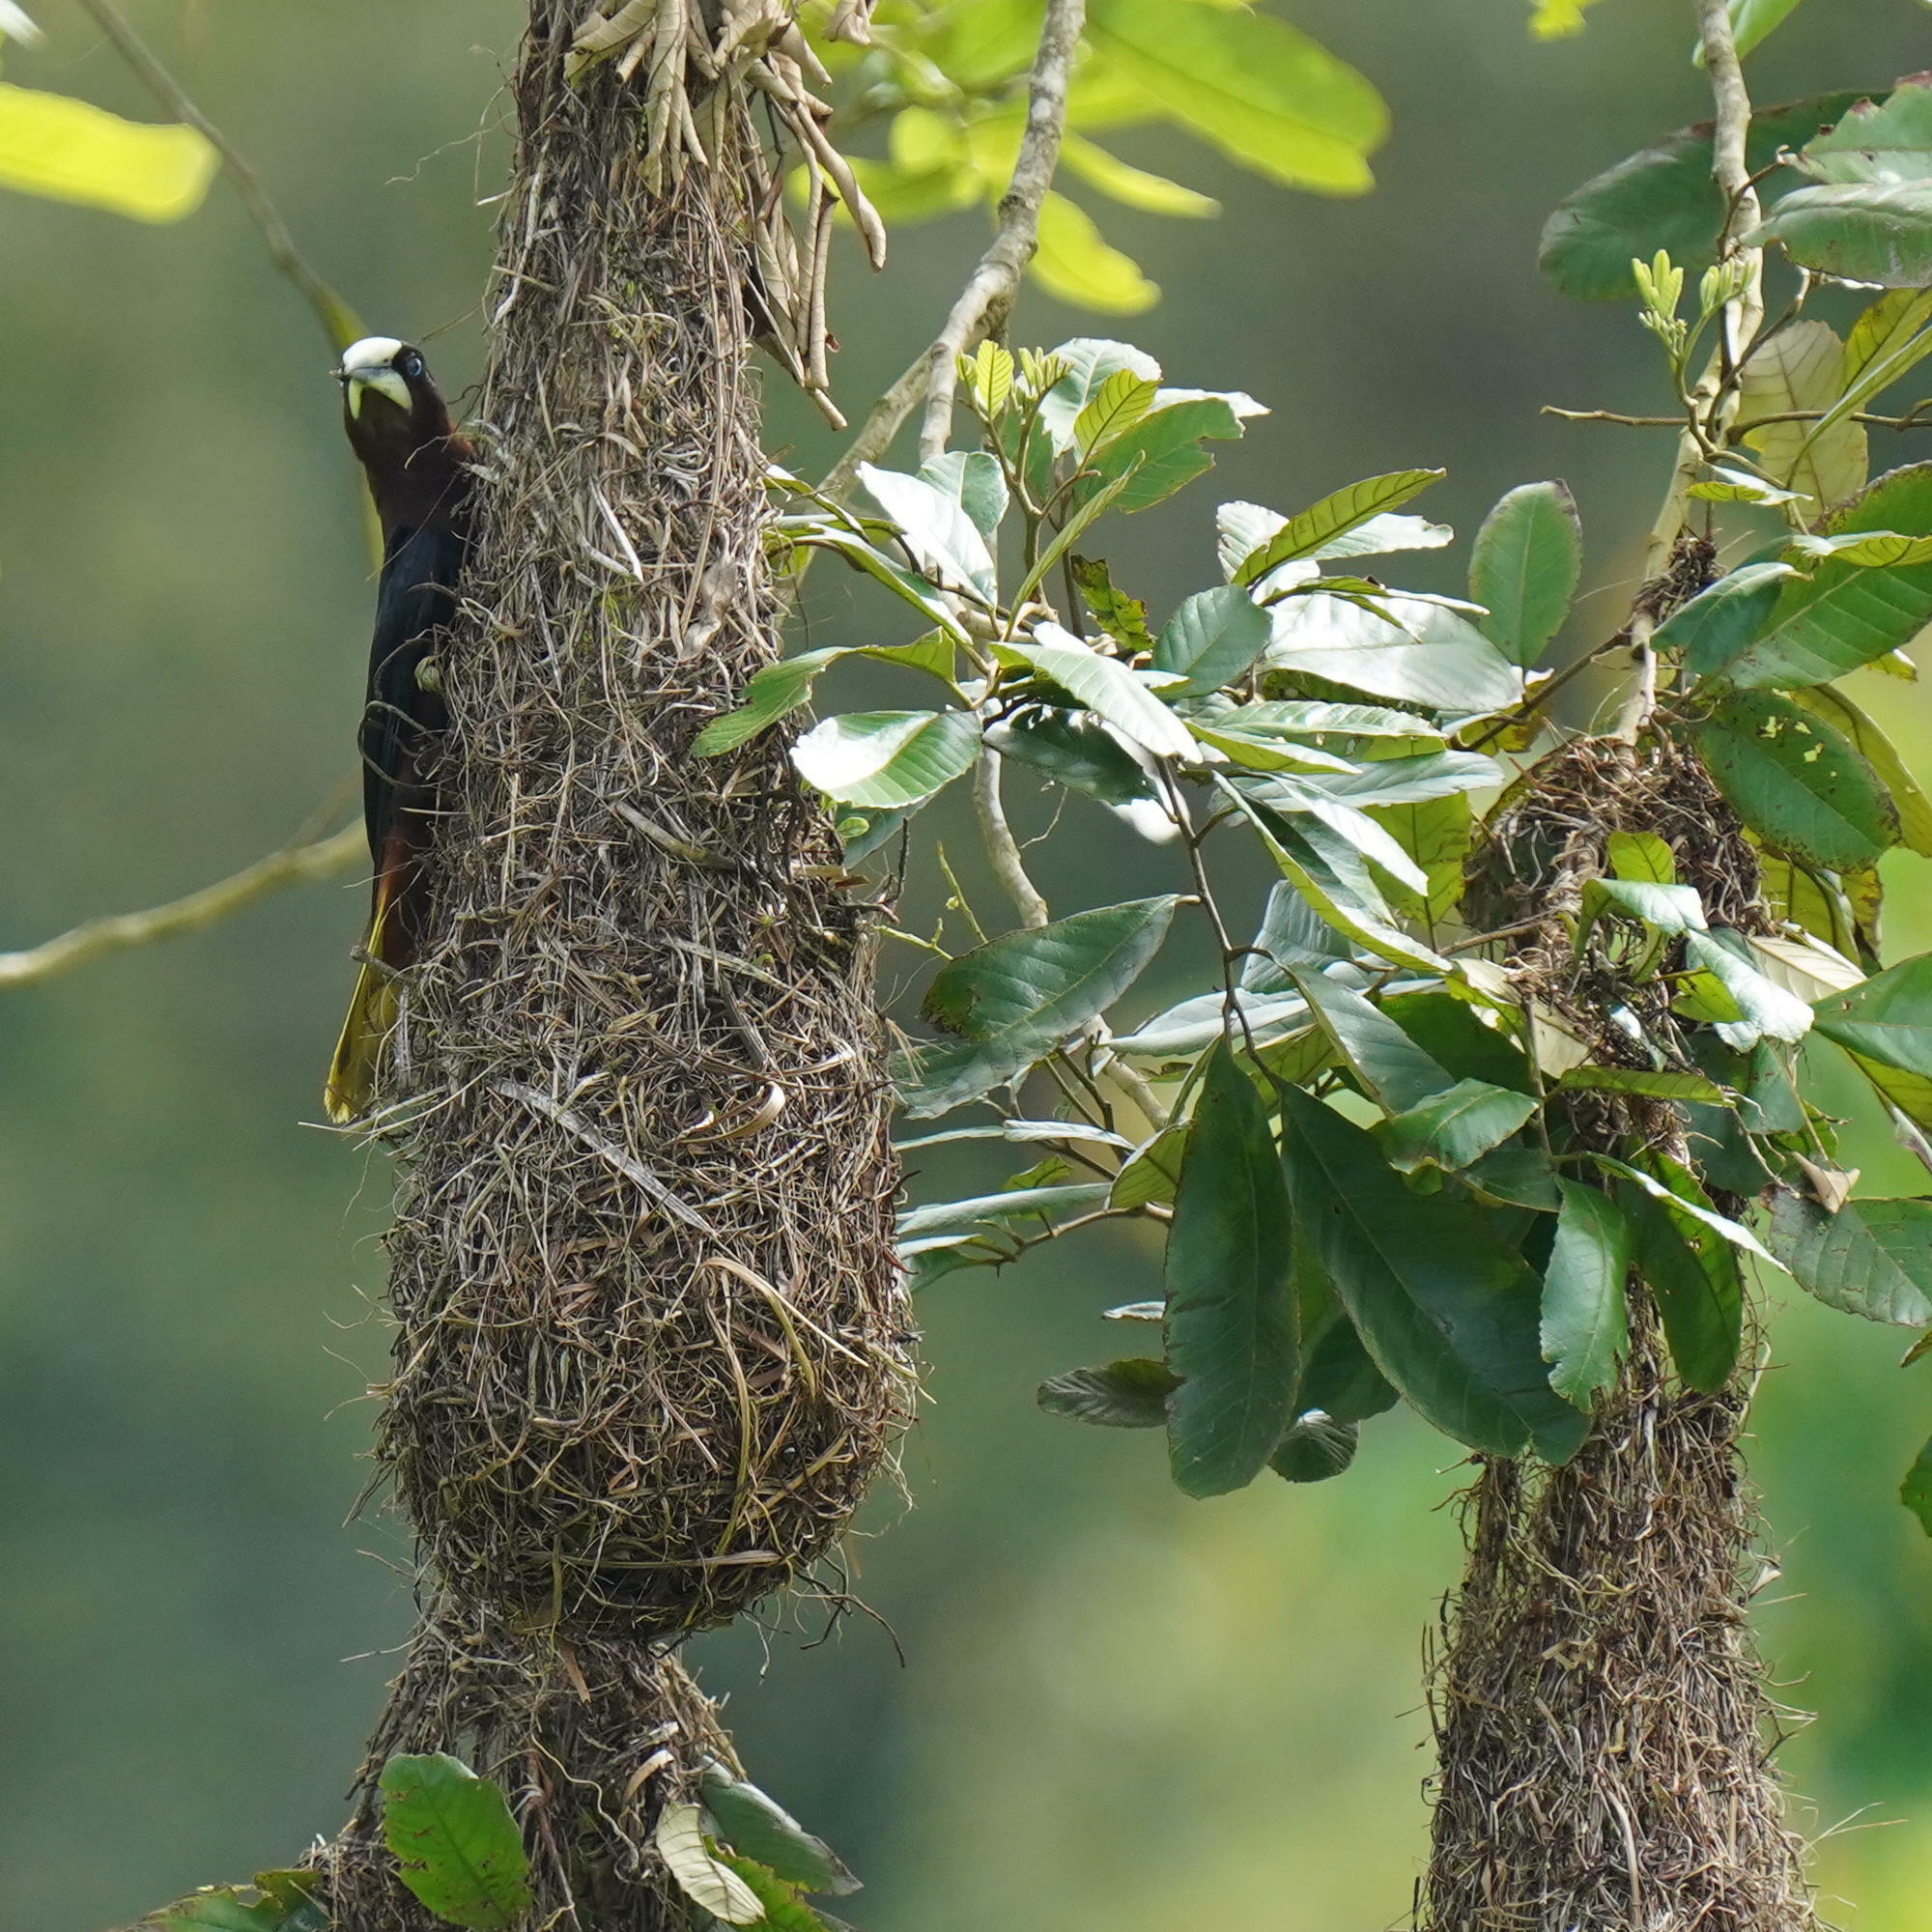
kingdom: Animalia
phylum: Chordata
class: Aves
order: Passeriformes
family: Icteridae
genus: Psarocolius
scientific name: Psarocolius wagleri
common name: Chestnut-headed oropendola
